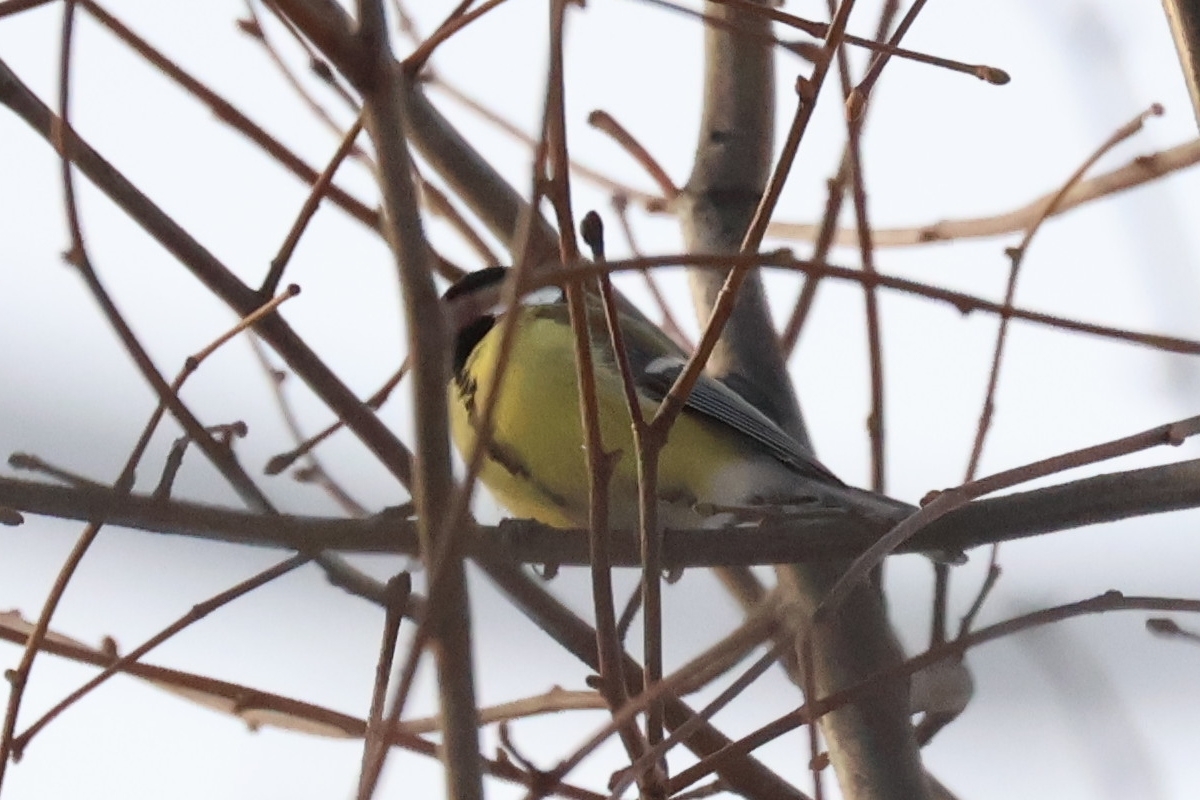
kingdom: Animalia
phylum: Chordata
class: Aves
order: Passeriformes
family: Paridae
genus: Parus
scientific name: Parus major
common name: Great tit
